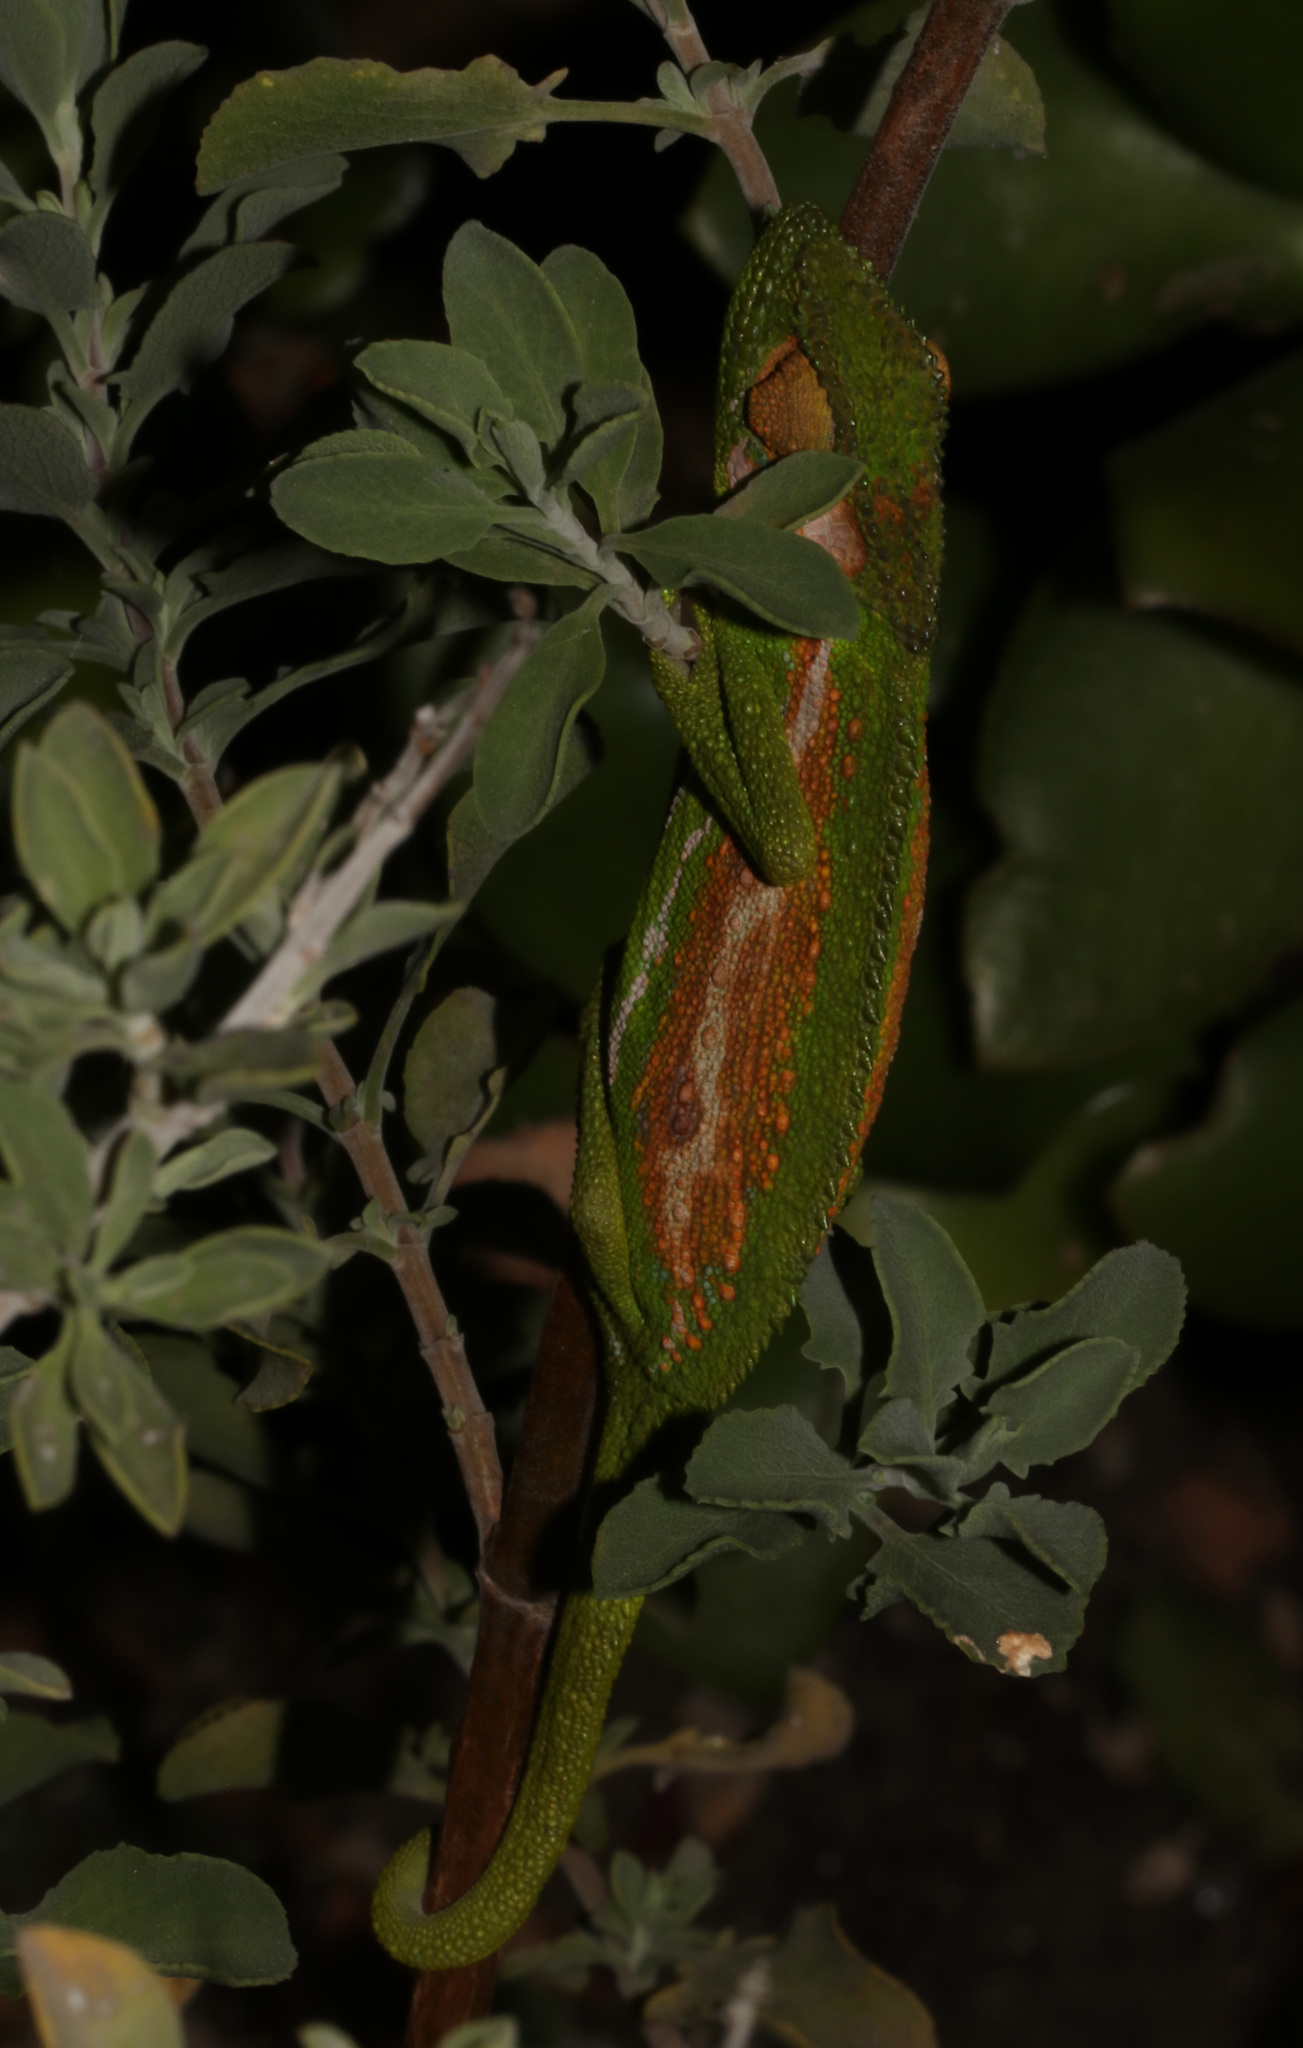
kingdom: Animalia
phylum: Chordata
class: Squamata
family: Chamaeleonidae
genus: Bradypodion
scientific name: Bradypodion pumilum
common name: Cape dwarf chameleon
